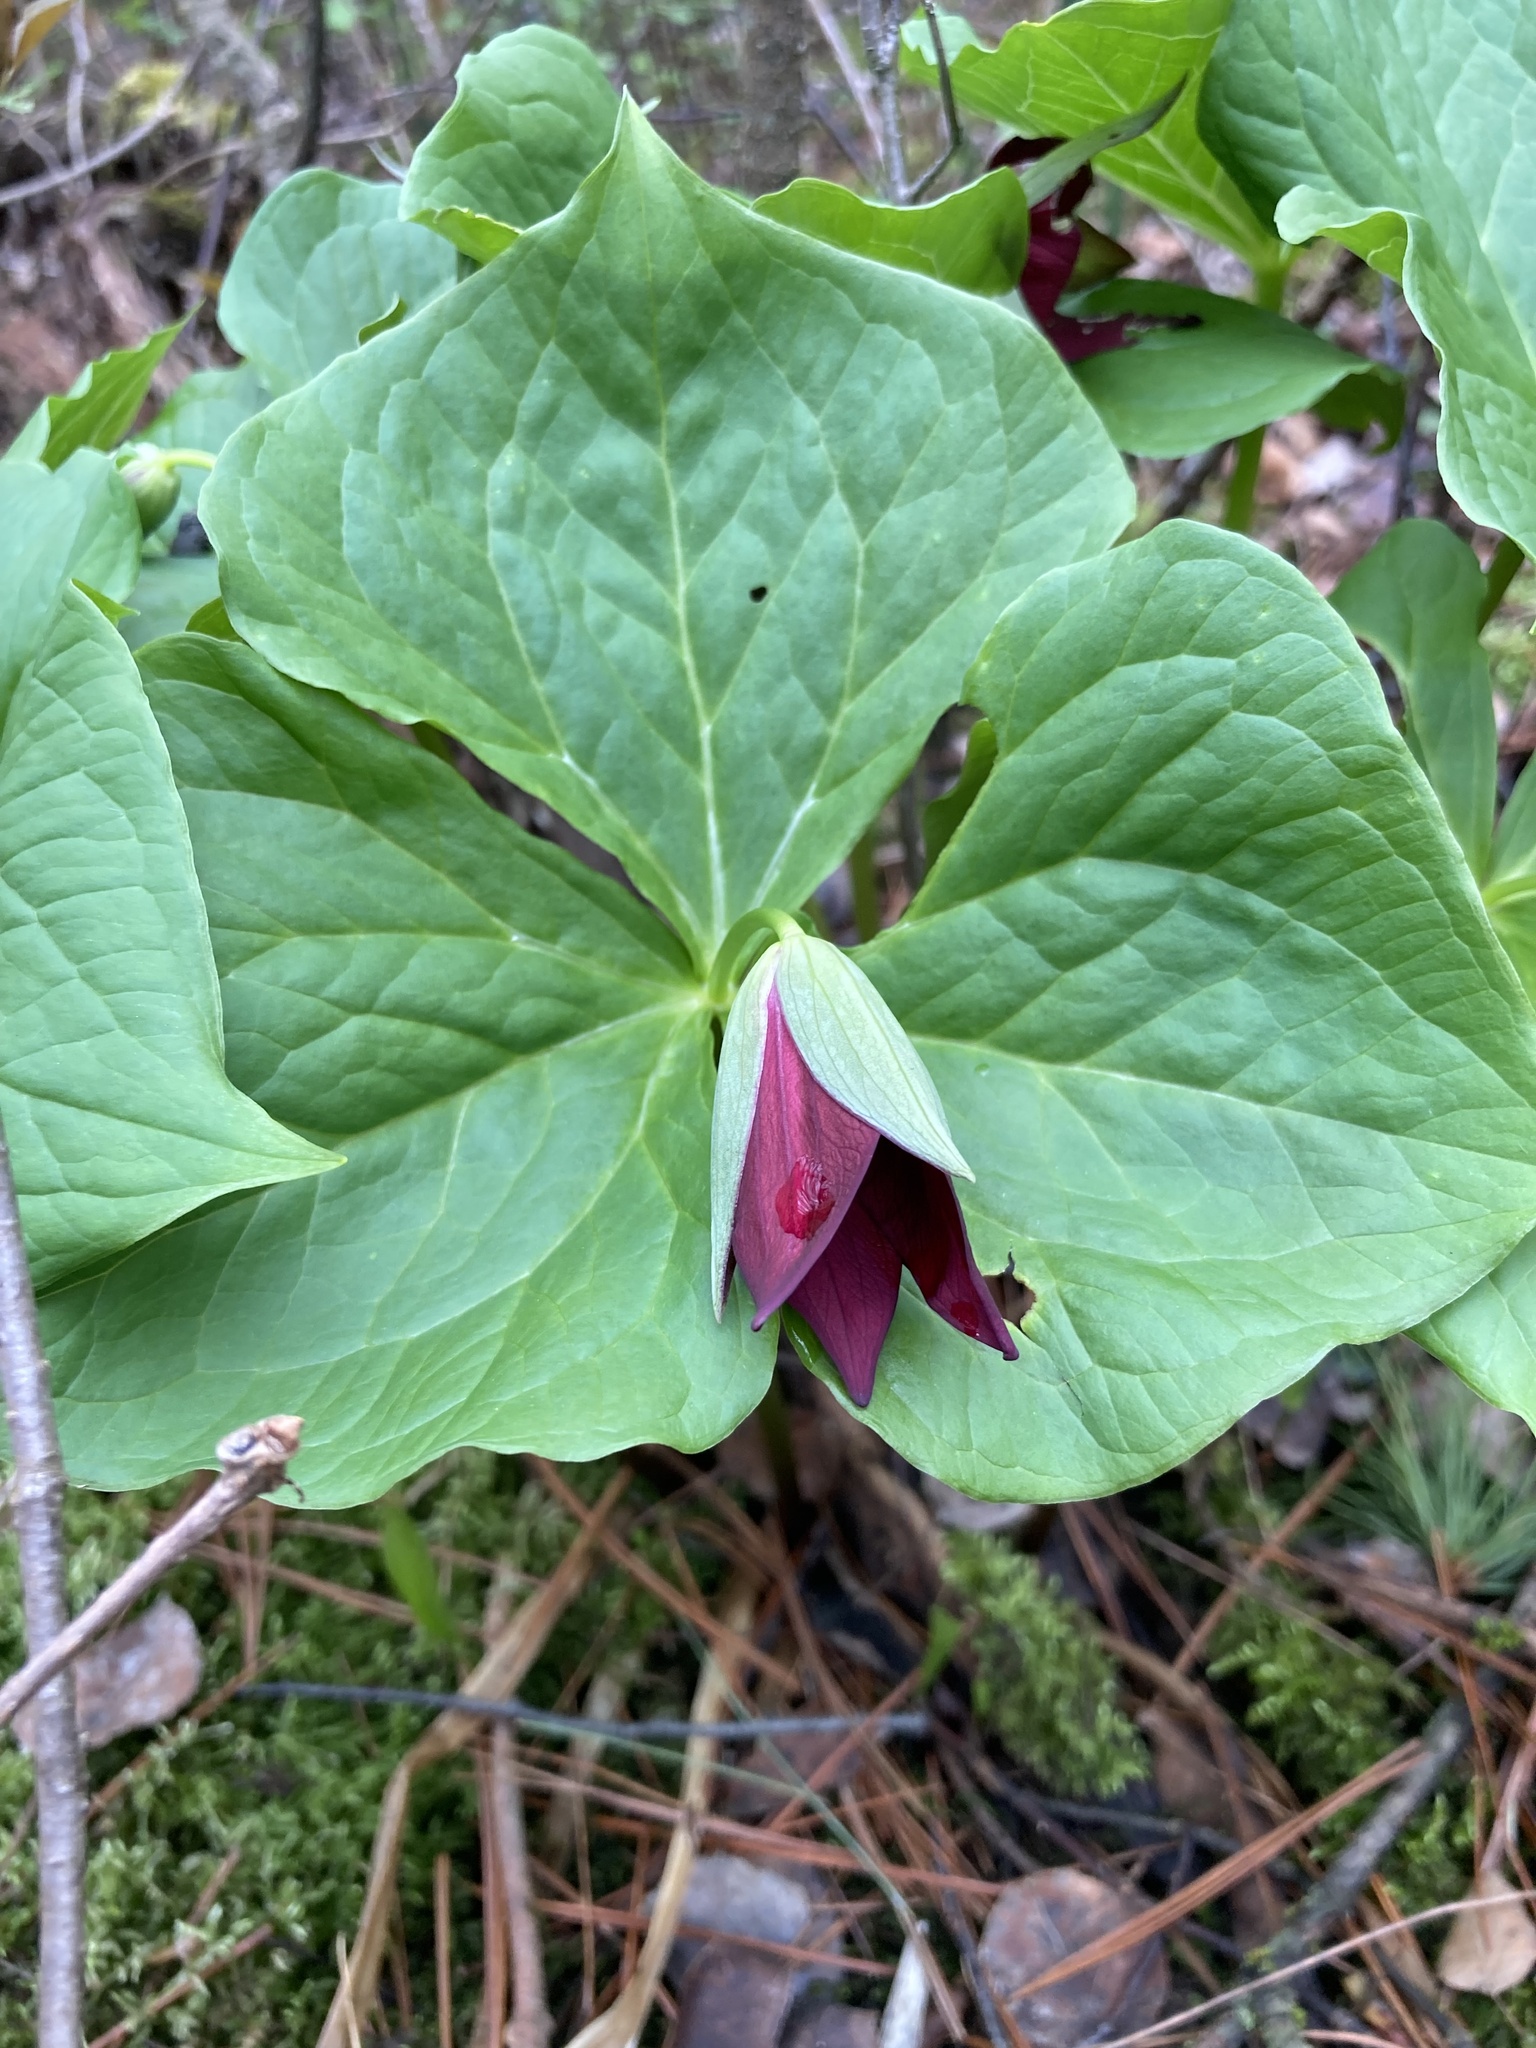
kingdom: Plantae
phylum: Tracheophyta
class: Liliopsida
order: Liliales
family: Melanthiaceae
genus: Trillium
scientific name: Trillium erectum
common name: Purple trillium
